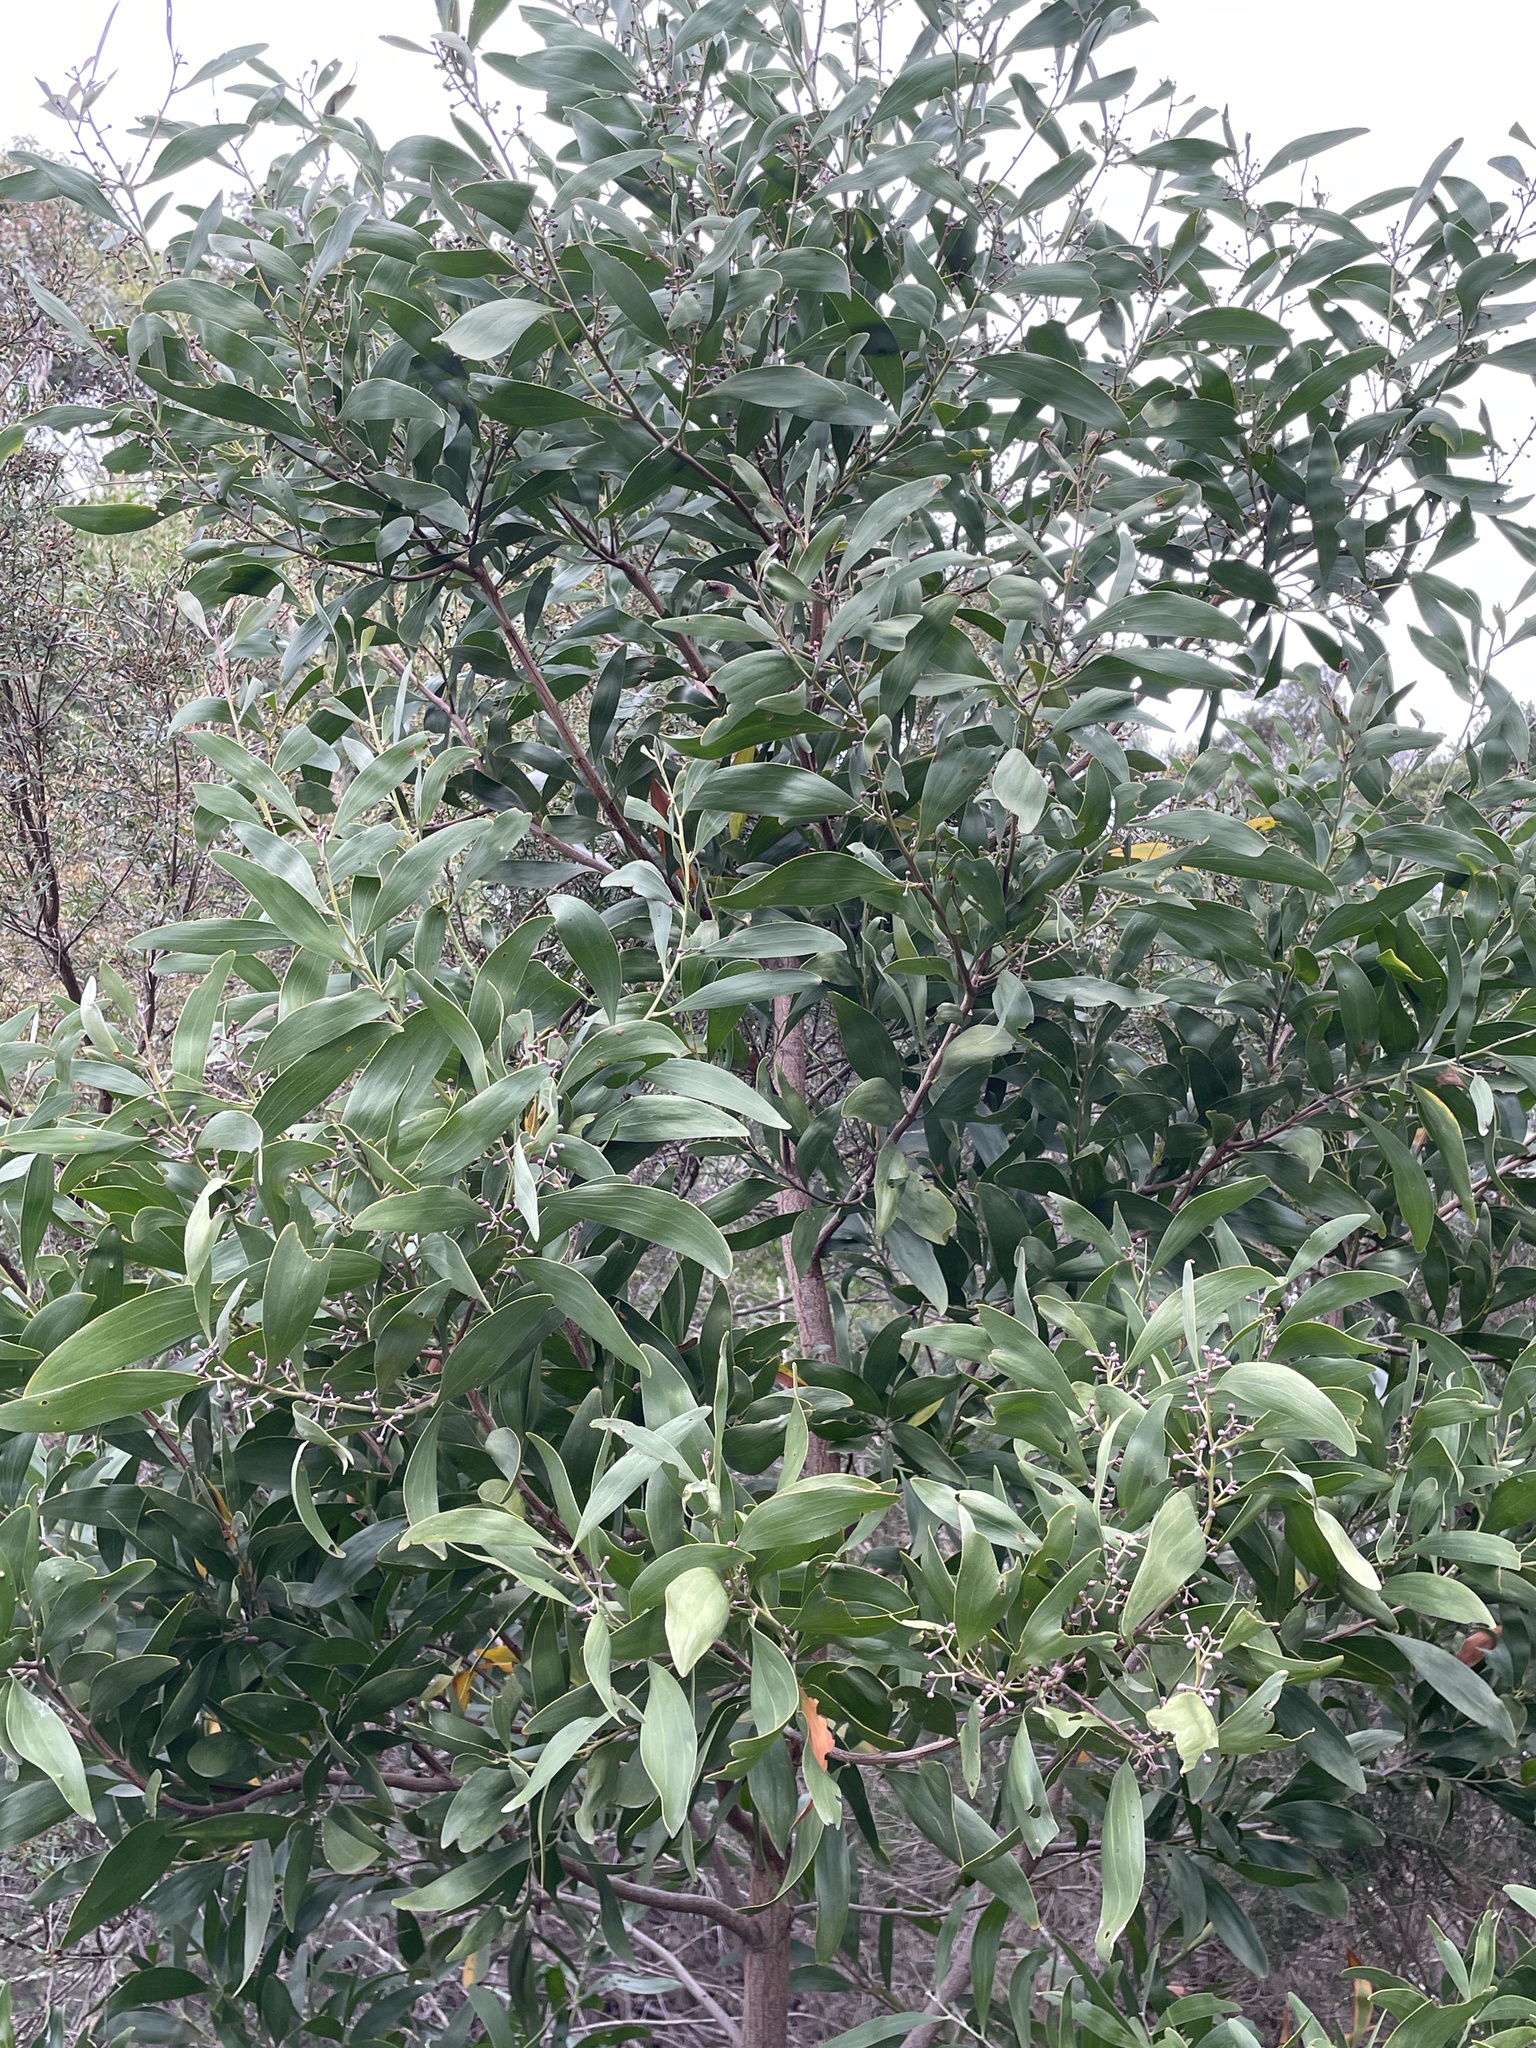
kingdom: Plantae
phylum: Tracheophyta
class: Magnoliopsida
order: Fabales
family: Fabaceae
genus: Acacia
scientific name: Acacia melanoxylon
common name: Blackwood
